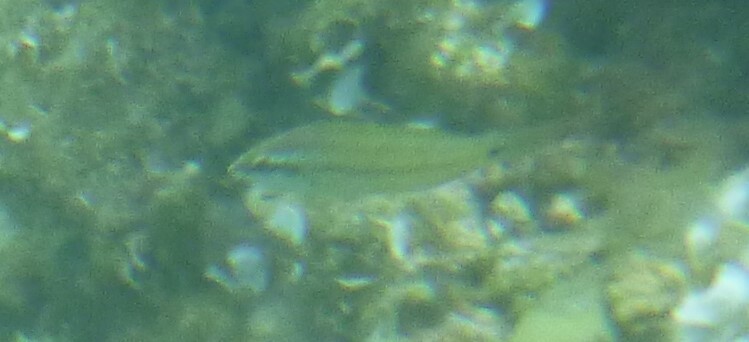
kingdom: Animalia
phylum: Chordata
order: Perciformes
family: Labridae
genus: Symphodus
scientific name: Symphodus
